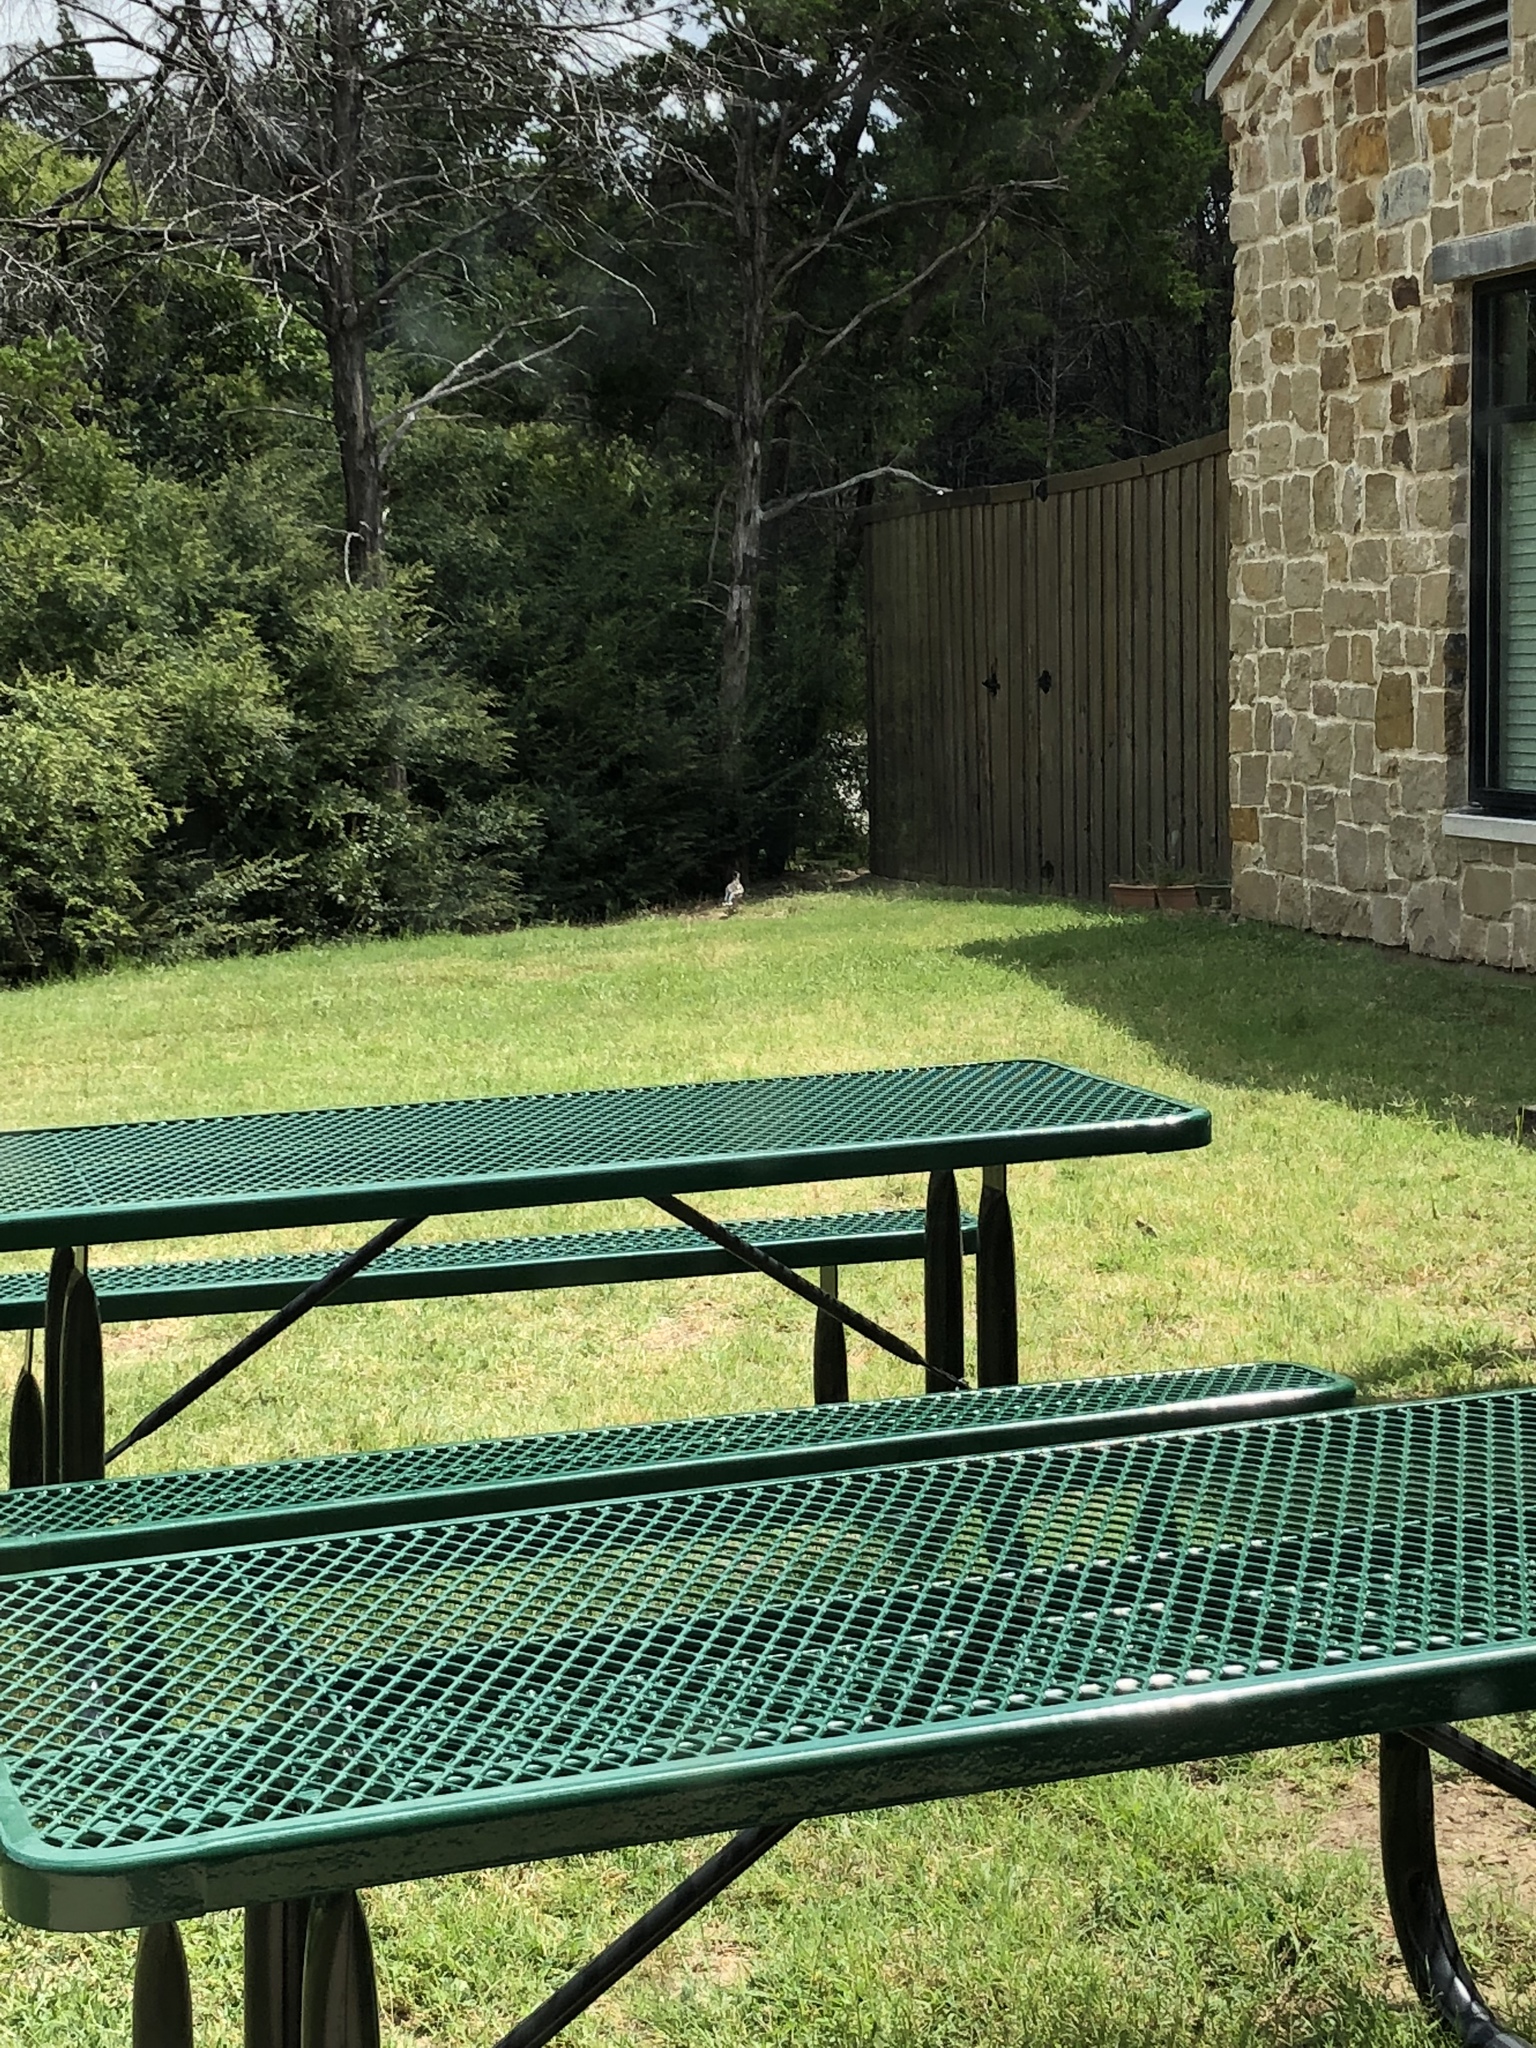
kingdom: Animalia
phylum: Chordata
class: Aves
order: Cuculiformes
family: Cuculidae
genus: Geococcyx
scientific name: Geococcyx californianus
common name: Greater roadrunner
